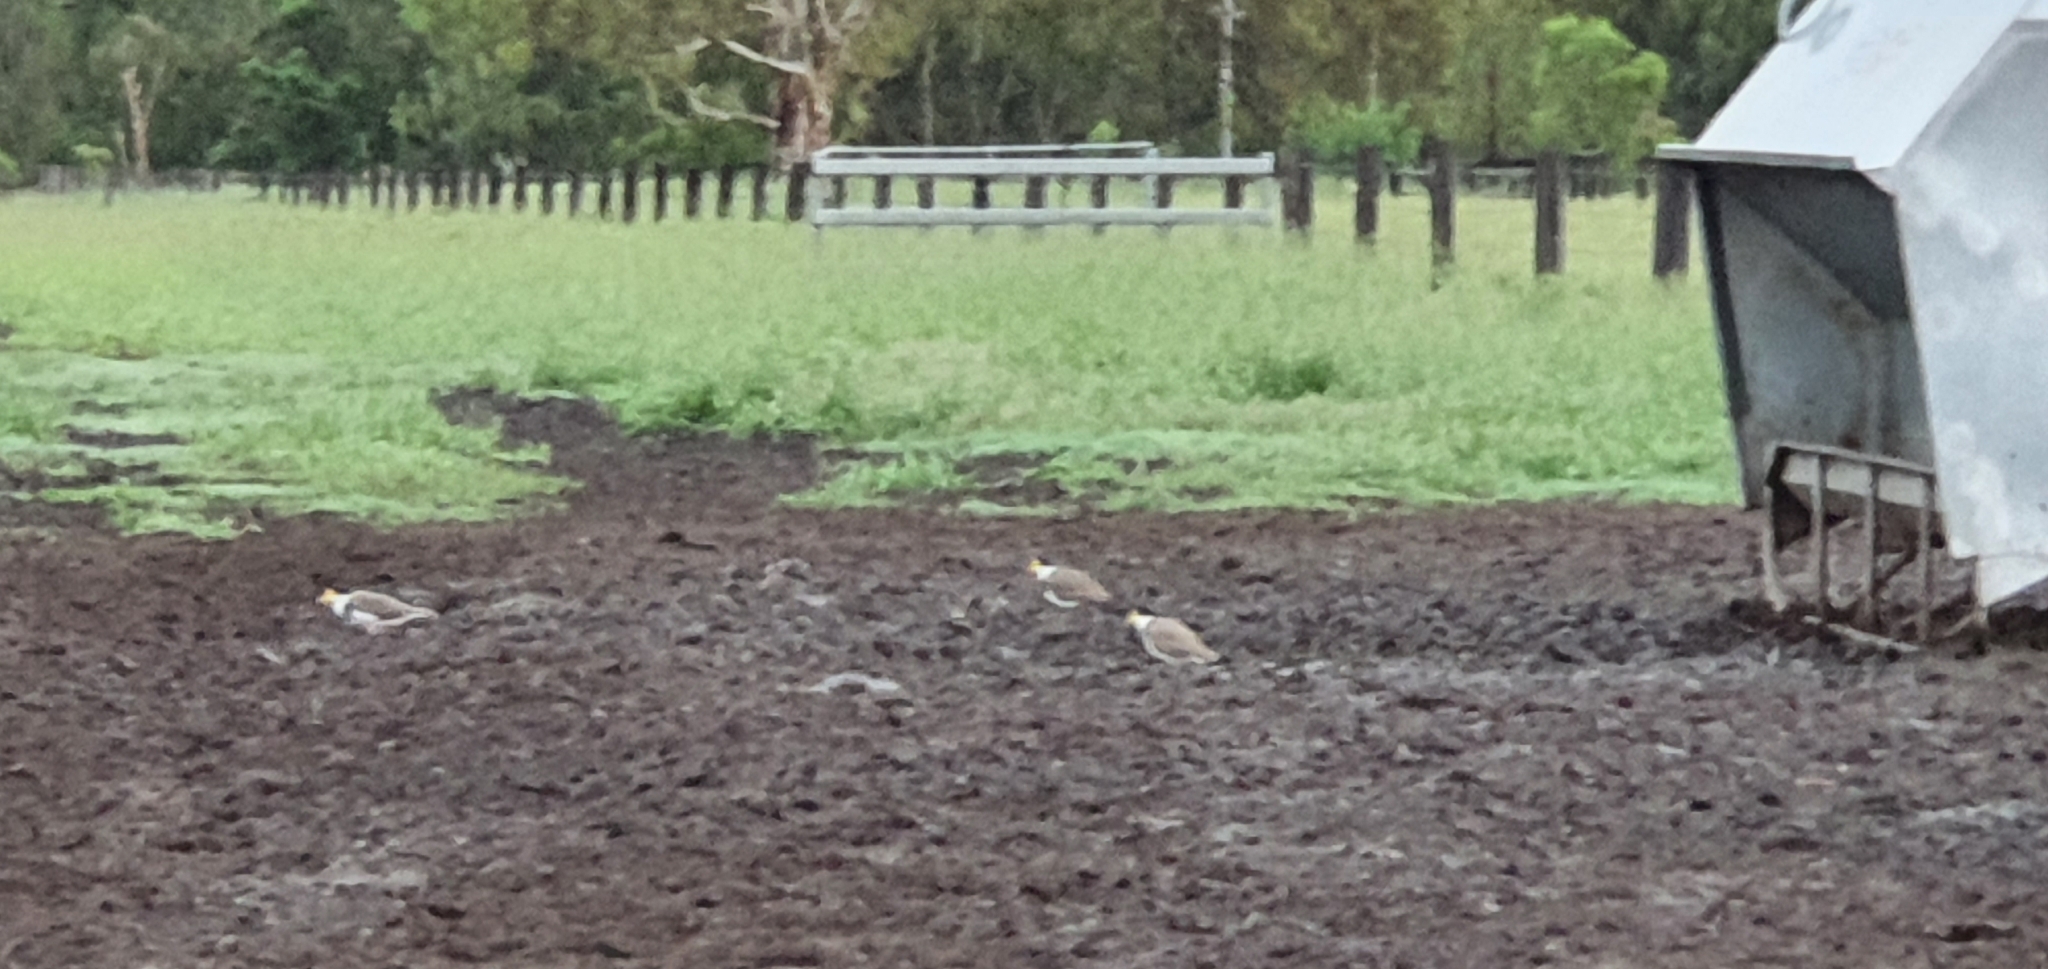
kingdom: Animalia
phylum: Chordata
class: Aves
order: Charadriiformes
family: Charadriidae
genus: Vanellus
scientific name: Vanellus miles
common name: Masked lapwing
